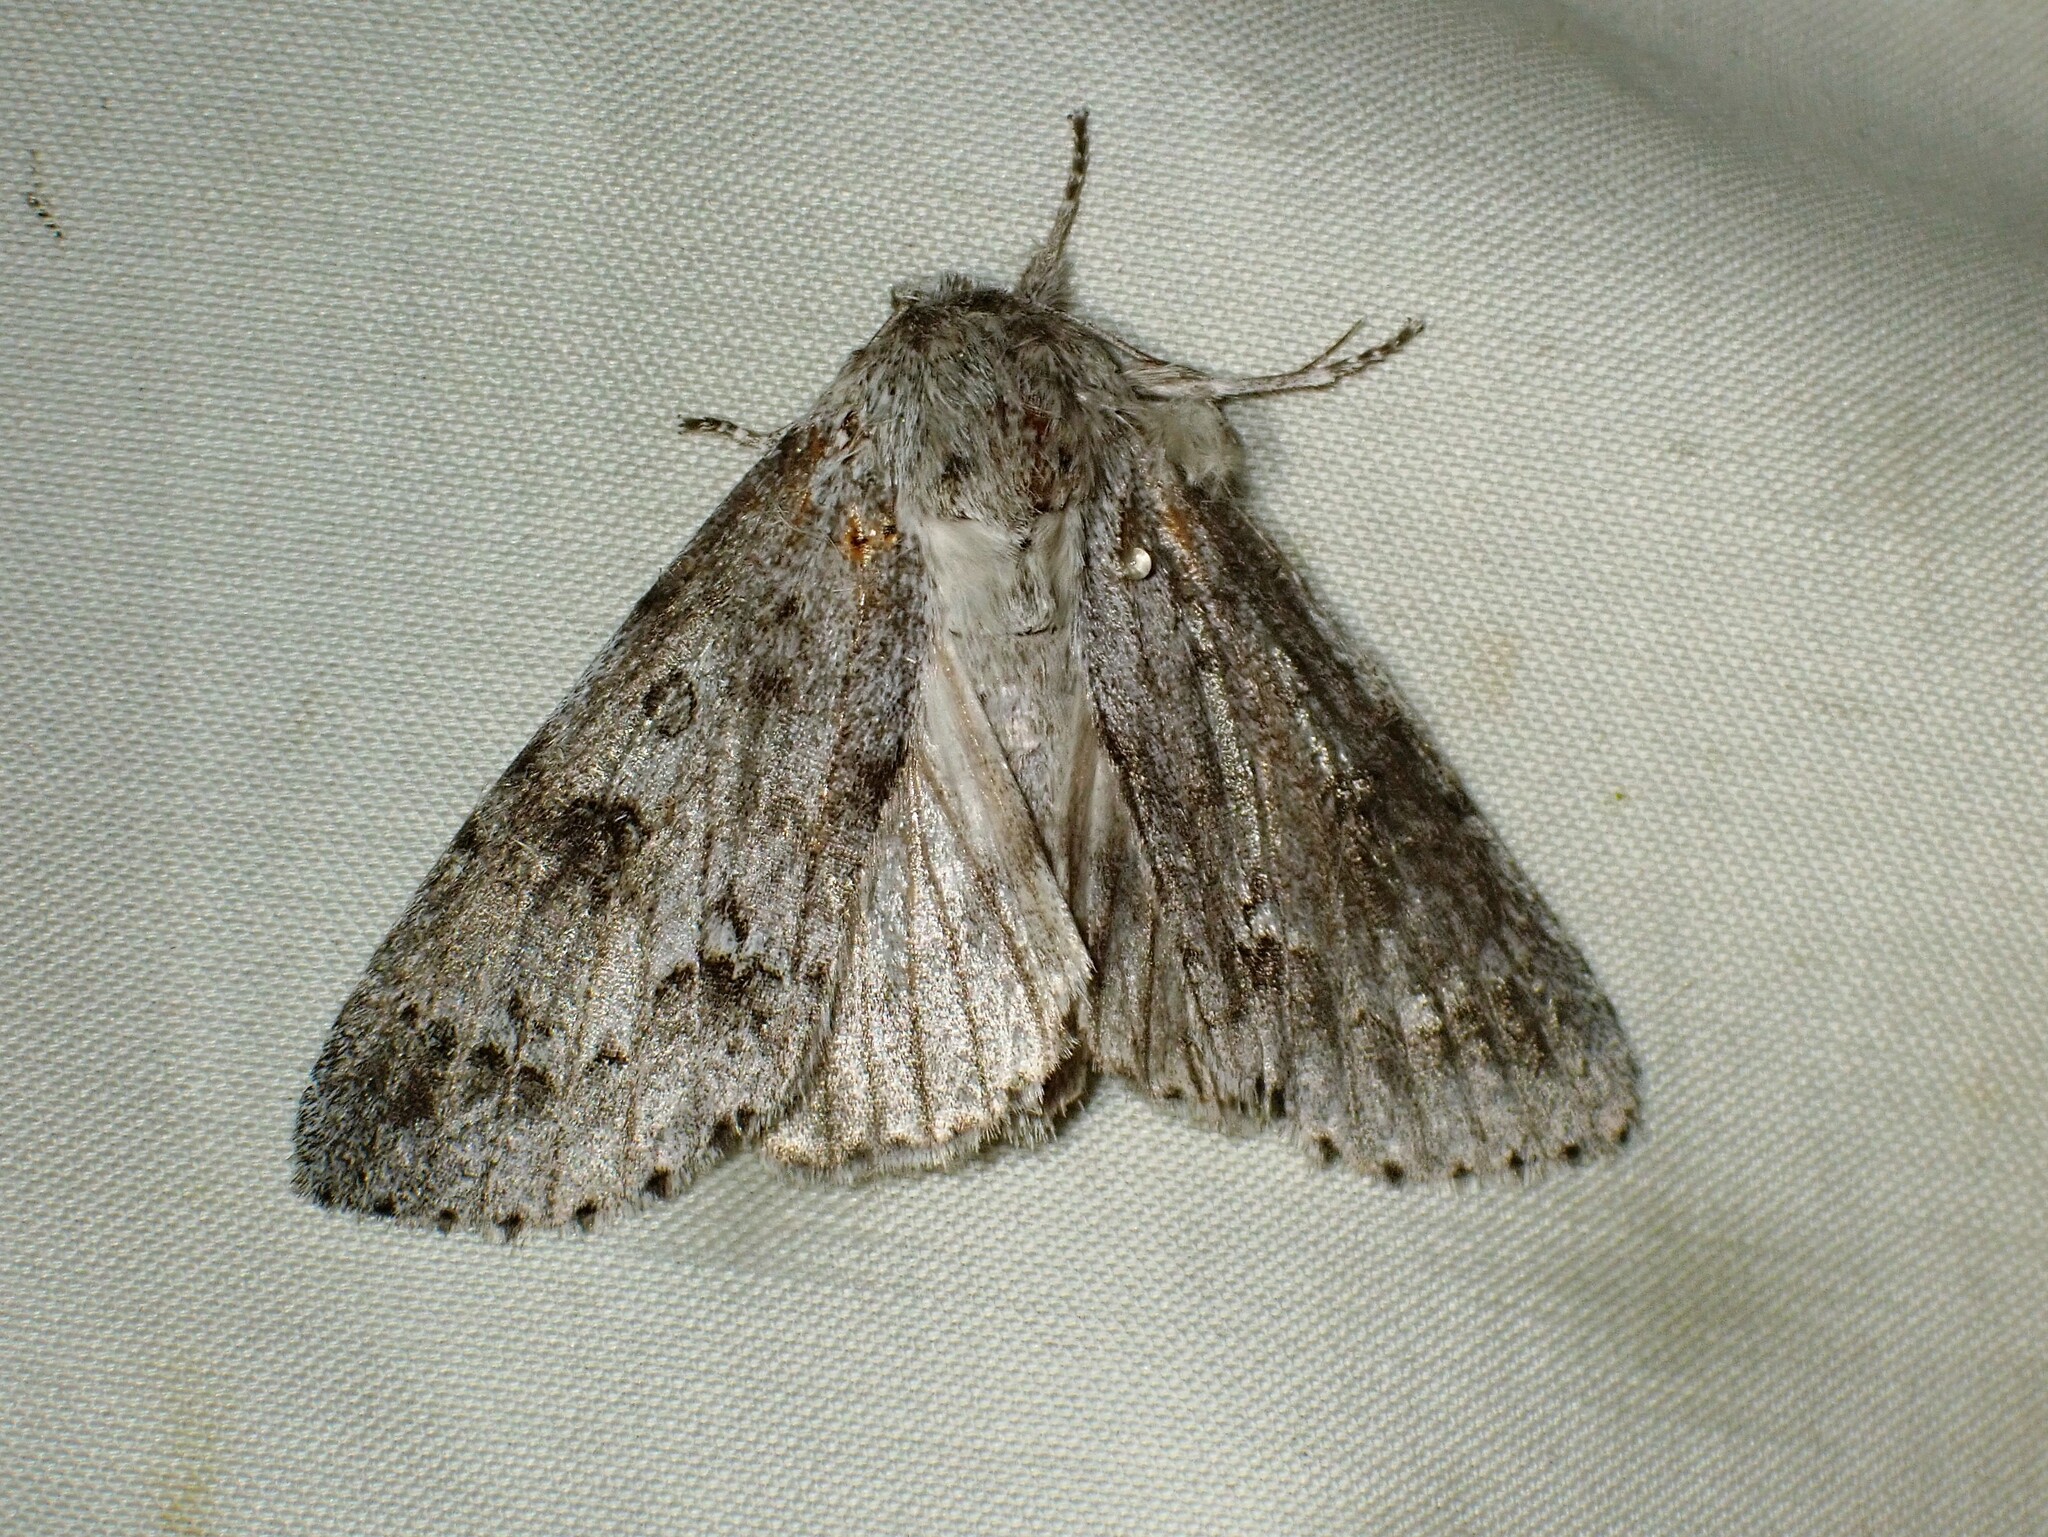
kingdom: Animalia
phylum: Arthropoda
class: Insecta
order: Lepidoptera
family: Noctuidae
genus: Acronicta
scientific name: Acronicta insita
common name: Large gray dagger
